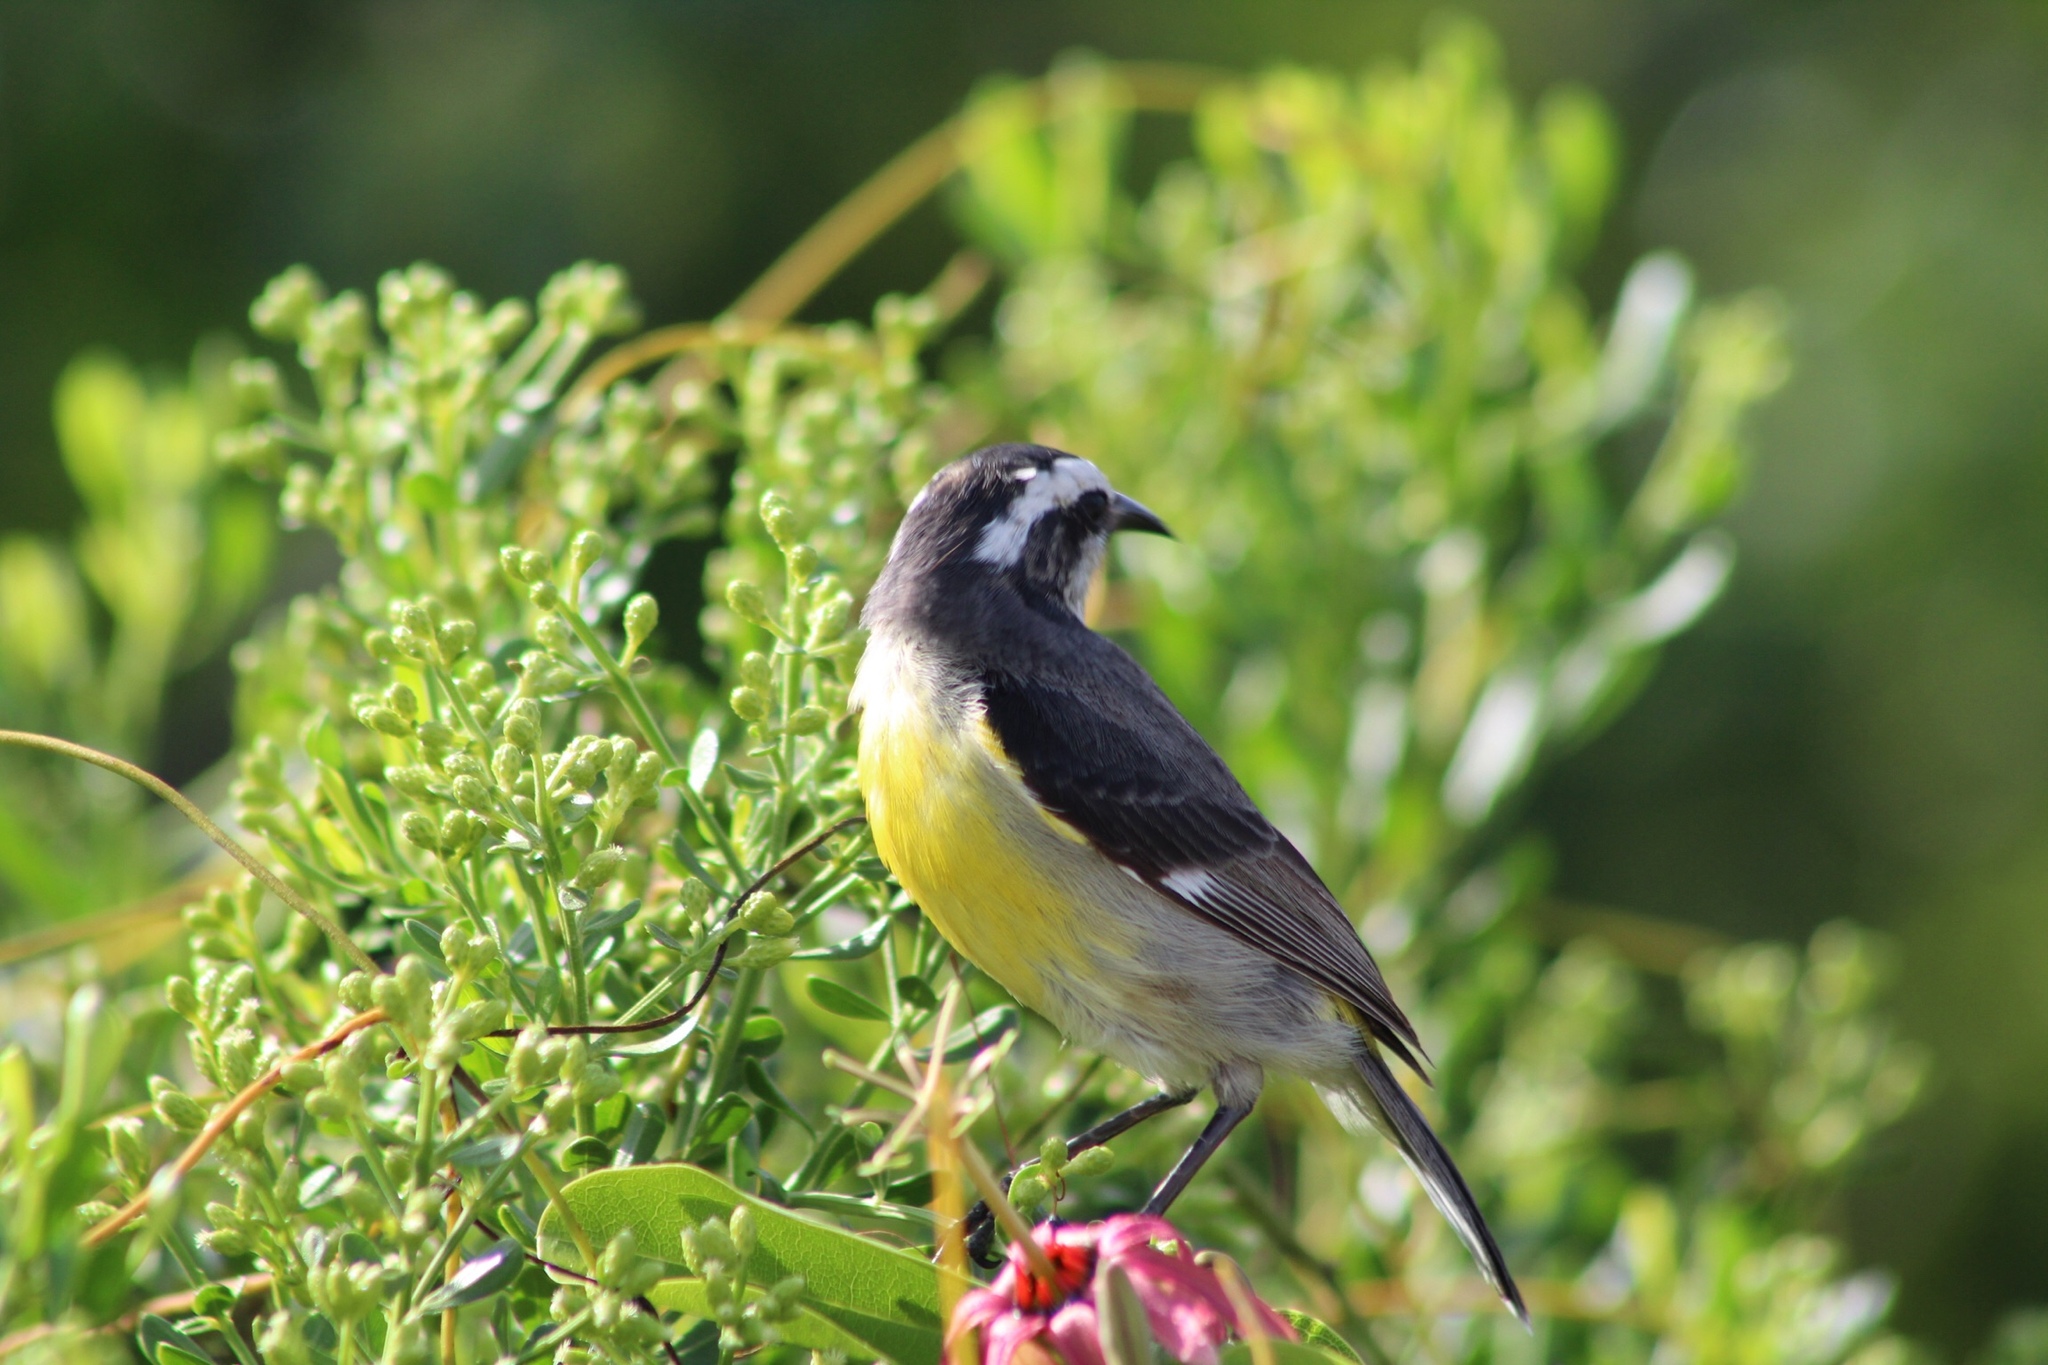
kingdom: Animalia
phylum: Chordata
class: Aves
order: Passeriformes
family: Thraupidae
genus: Coereba
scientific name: Coereba flaveola
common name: Bananaquit
